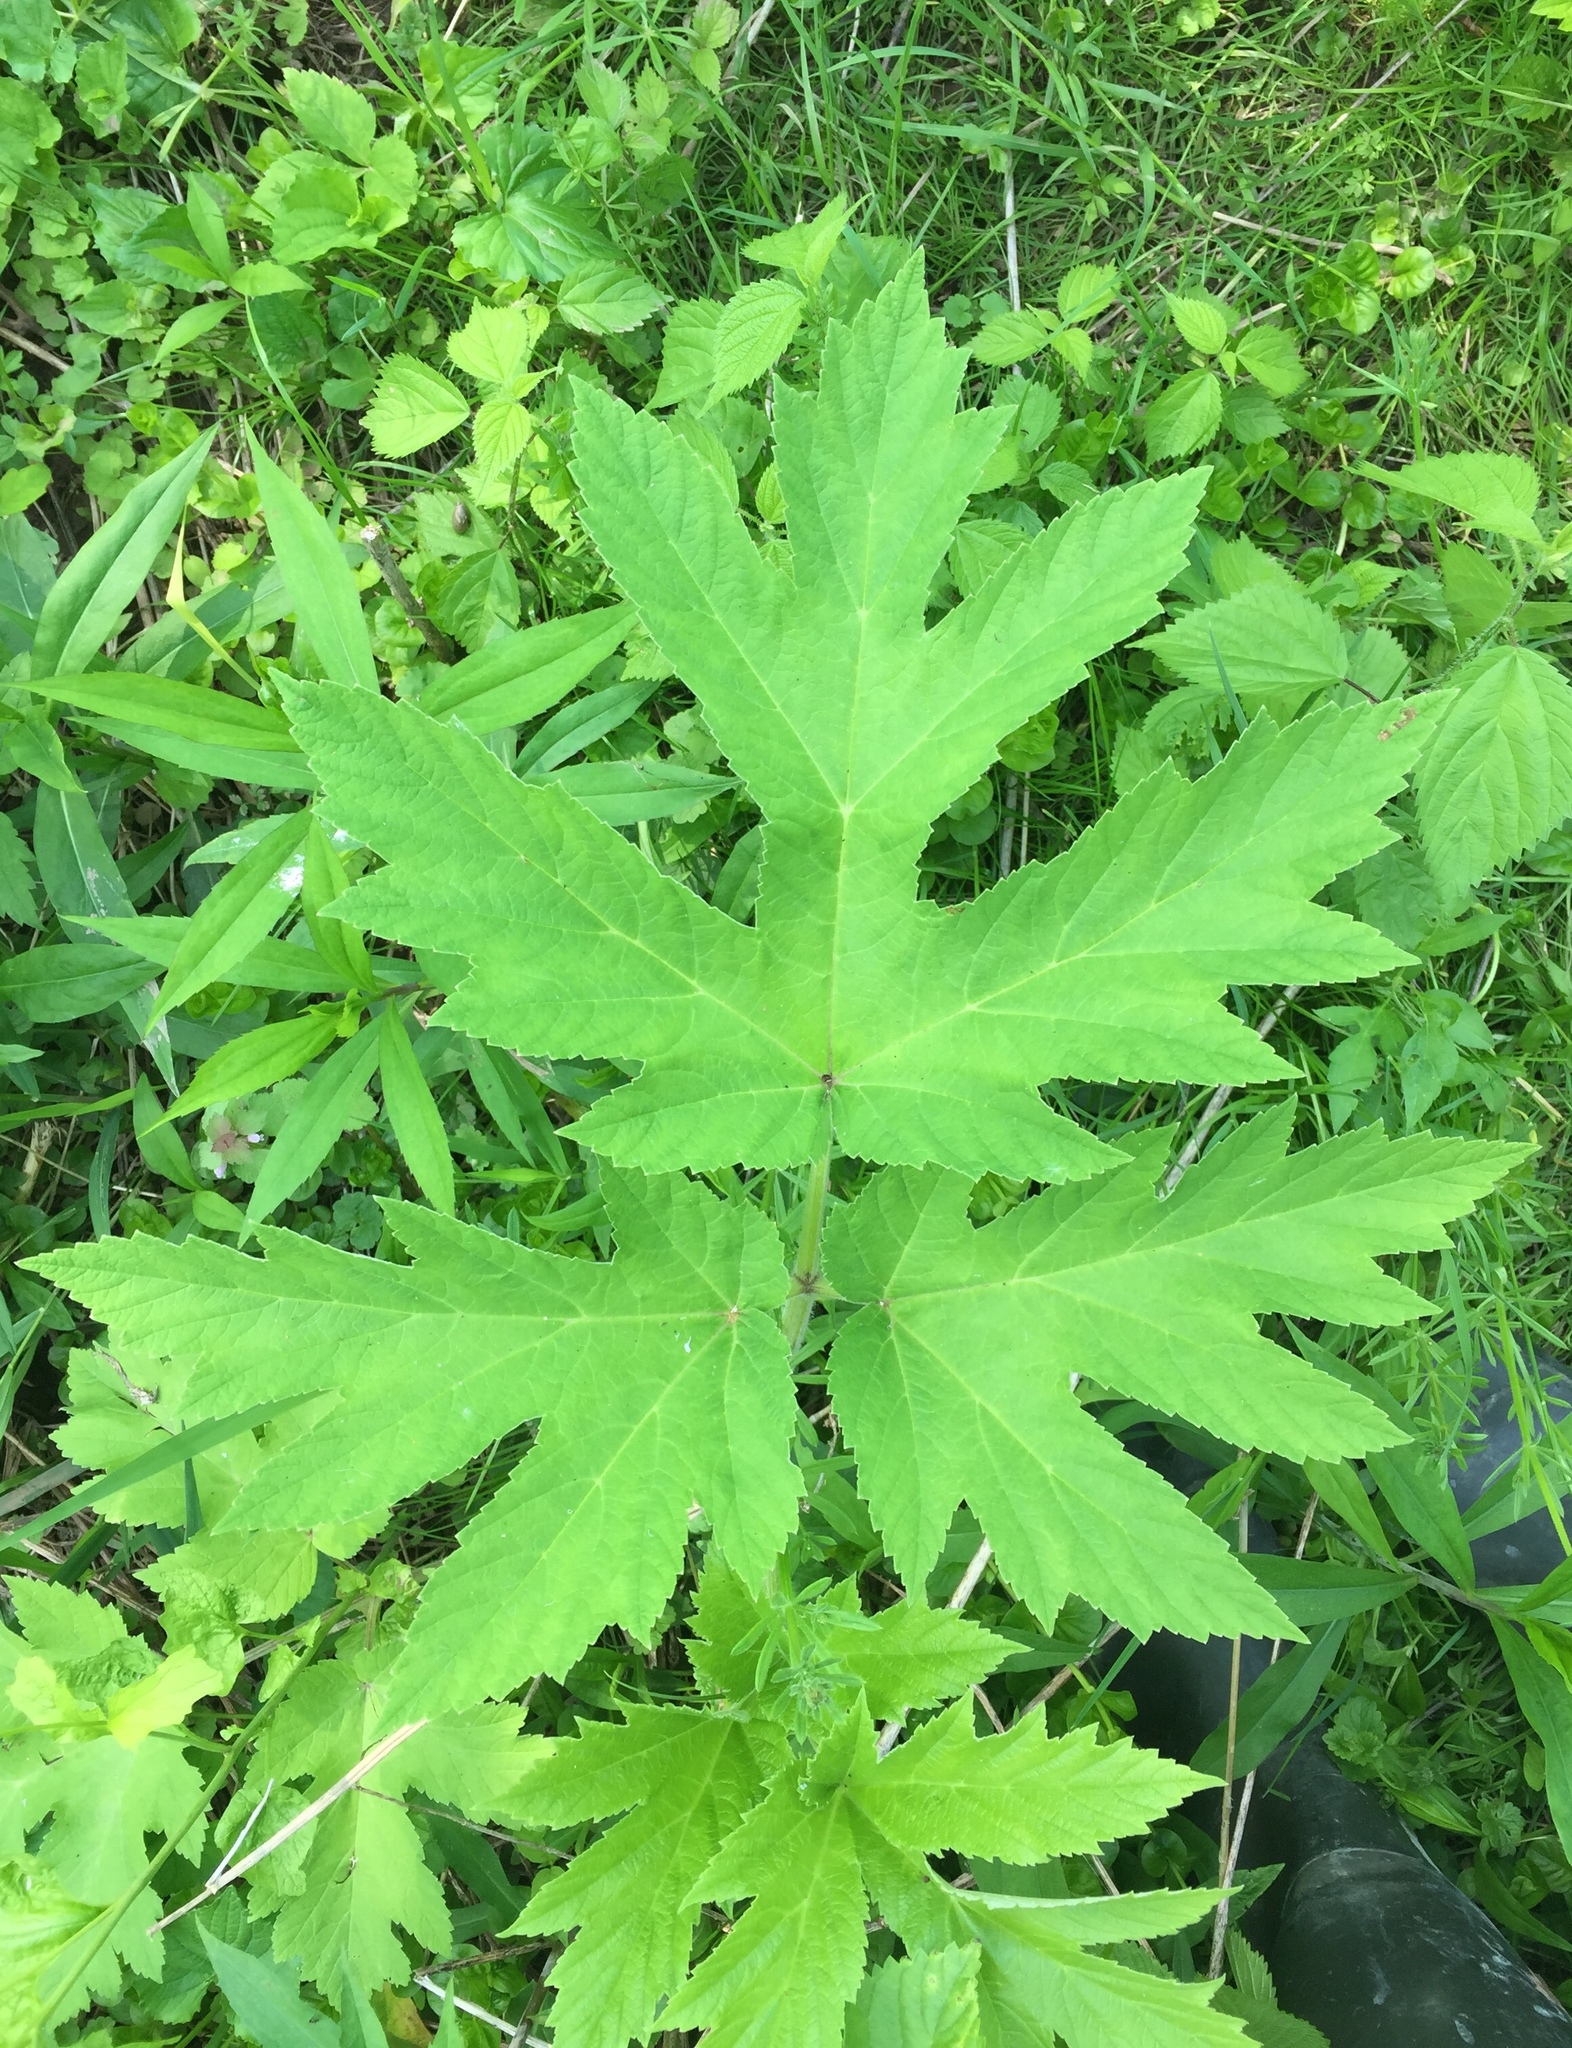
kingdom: Plantae
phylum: Tracheophyta
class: Magnoliopsida
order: Apiales
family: Apiaceae
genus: Heracleum
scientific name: Heracleum maximum
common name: American cow parsnip
